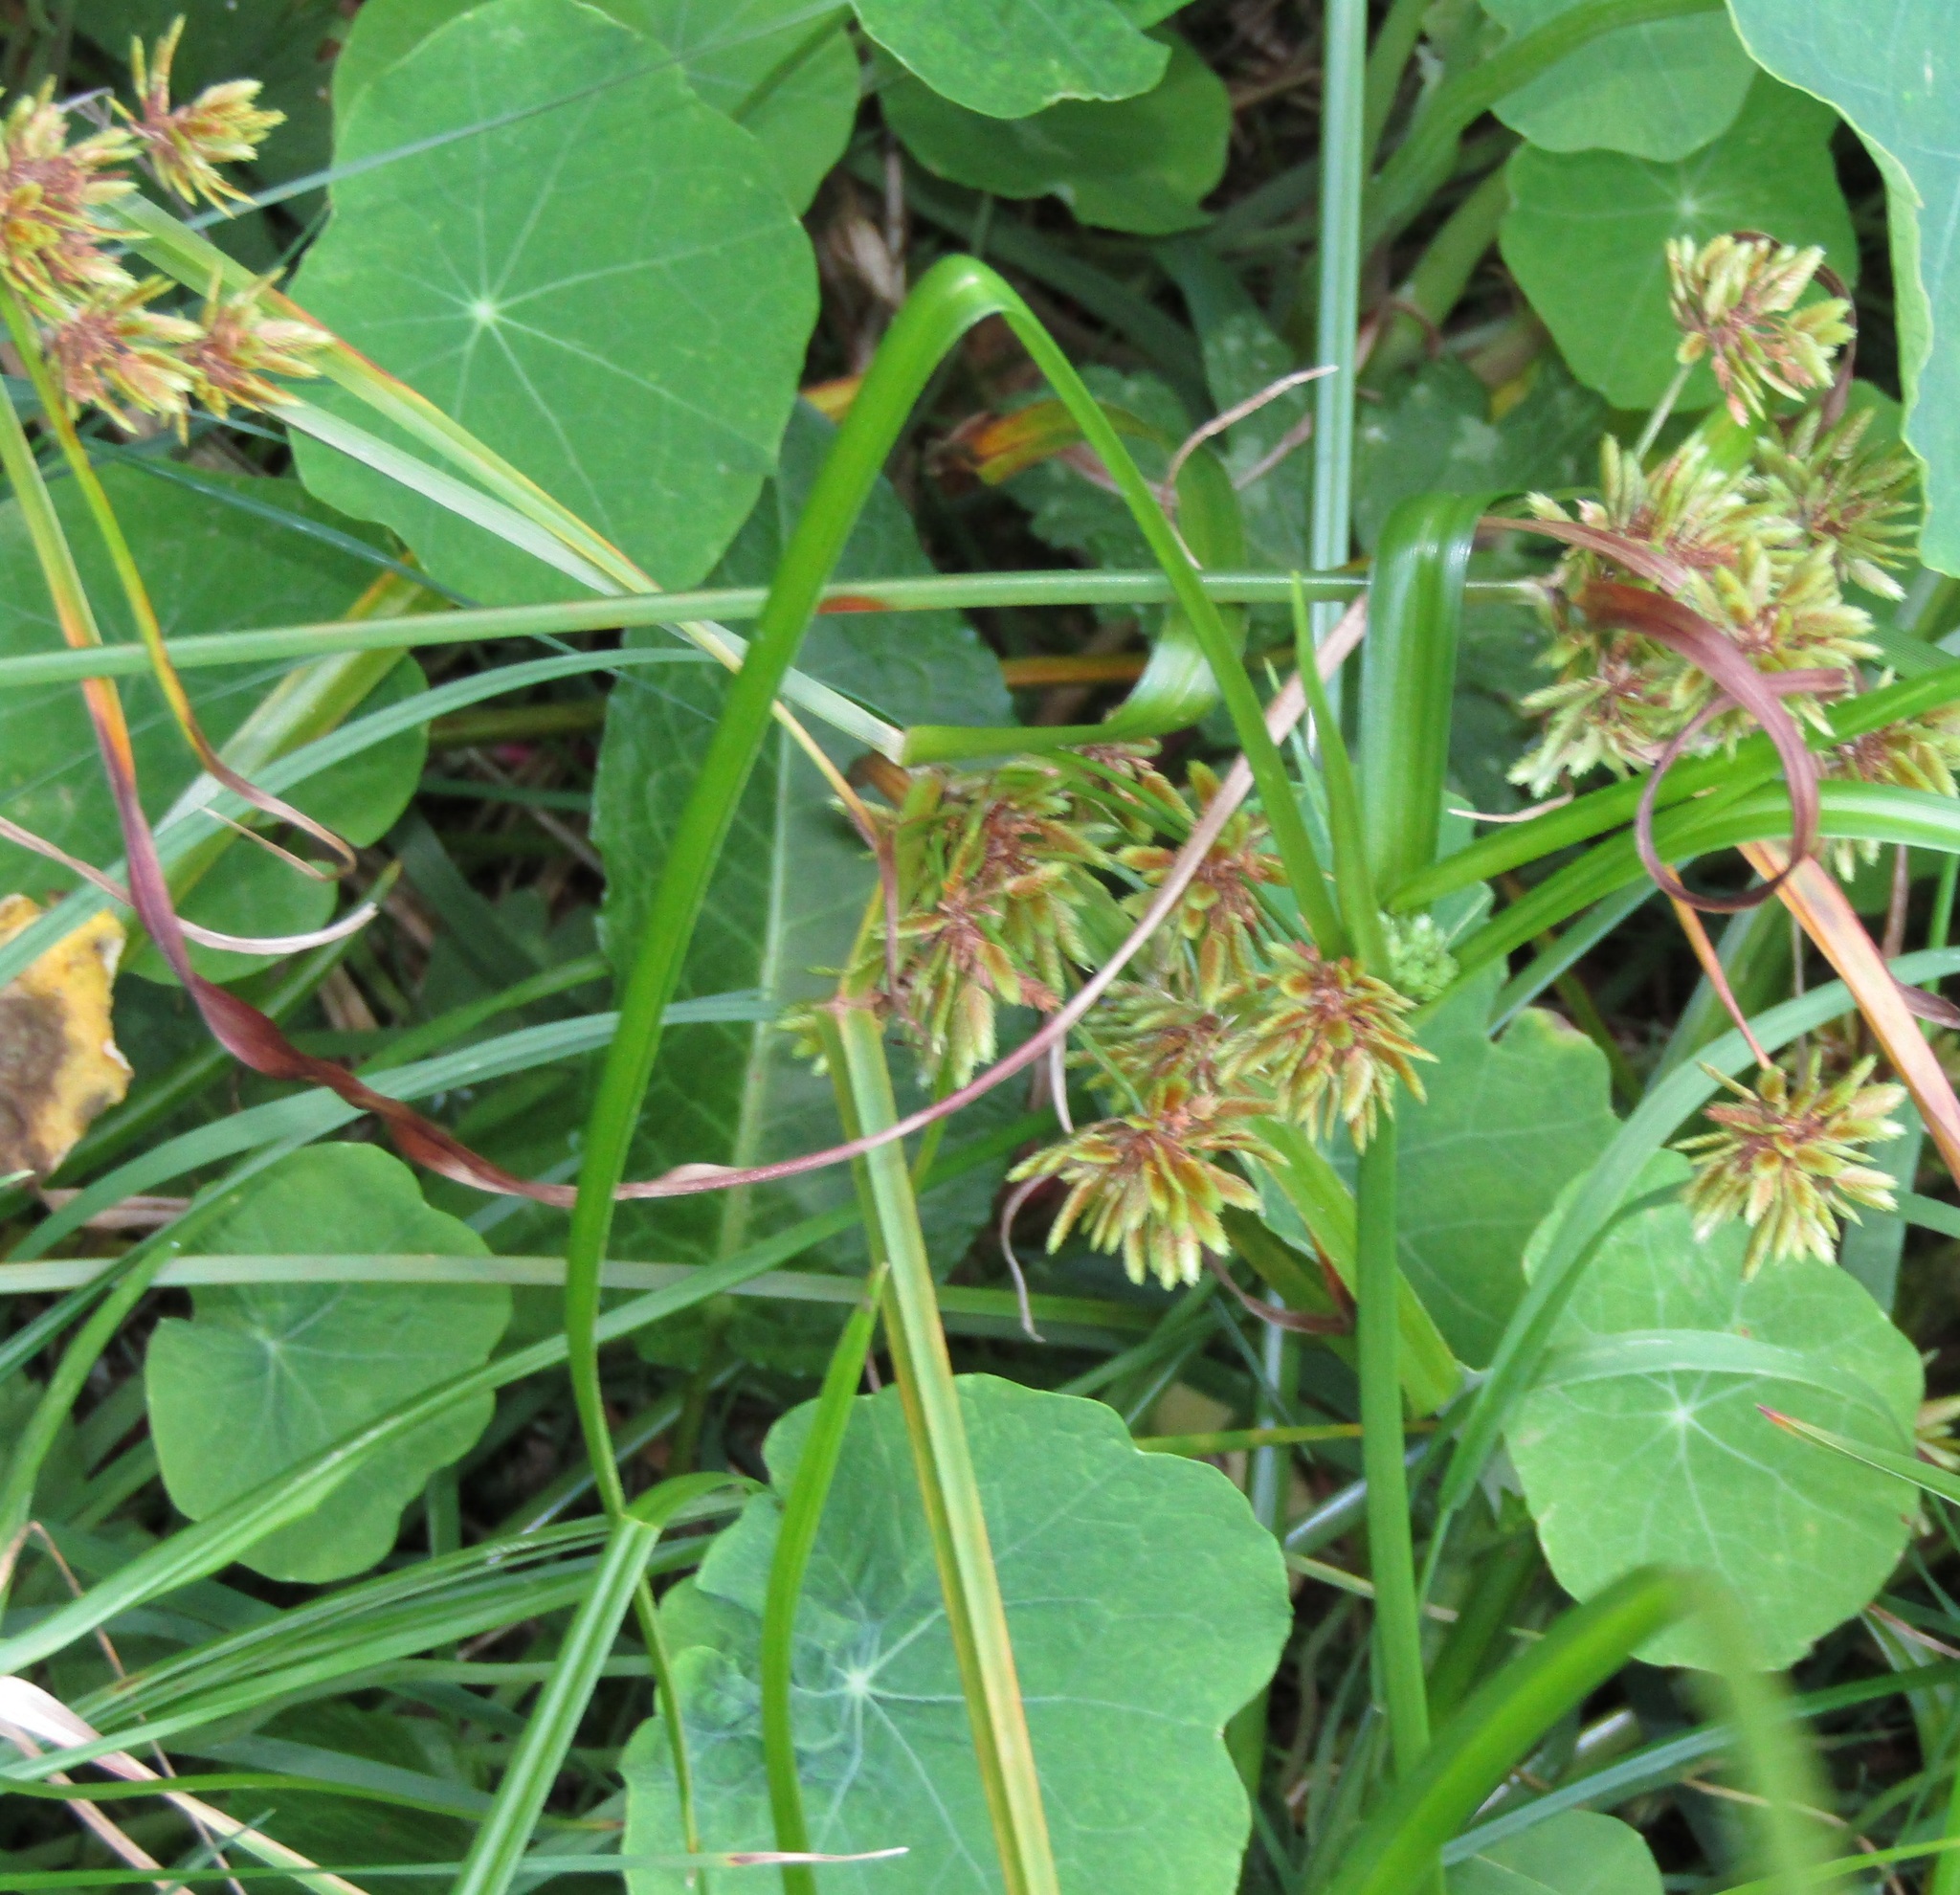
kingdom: Plantae
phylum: Tracheophyta
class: Liliopsida
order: Poales
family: Cyperaceae
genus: Cyperus
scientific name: Cyperus eragrostis
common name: Tall flatsedge
